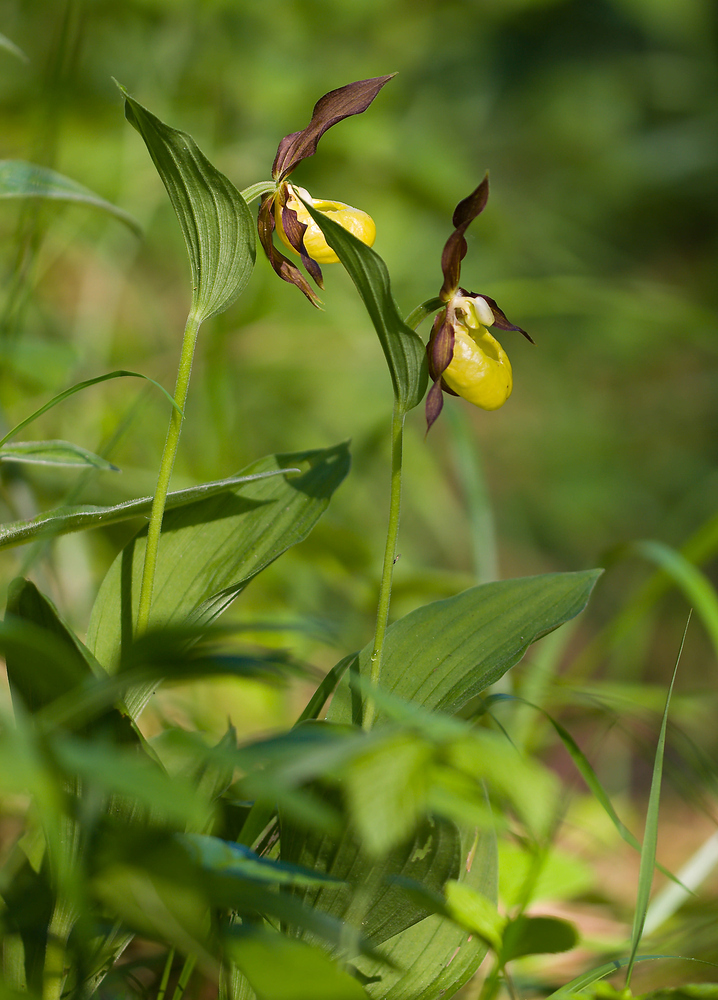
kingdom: Plantae
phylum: Tracheophyta
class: Liliopsida
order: Asparagales
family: Orchidaceae
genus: Cypripedium
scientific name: Cypripedium calceolus
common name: Lady's-slipper
